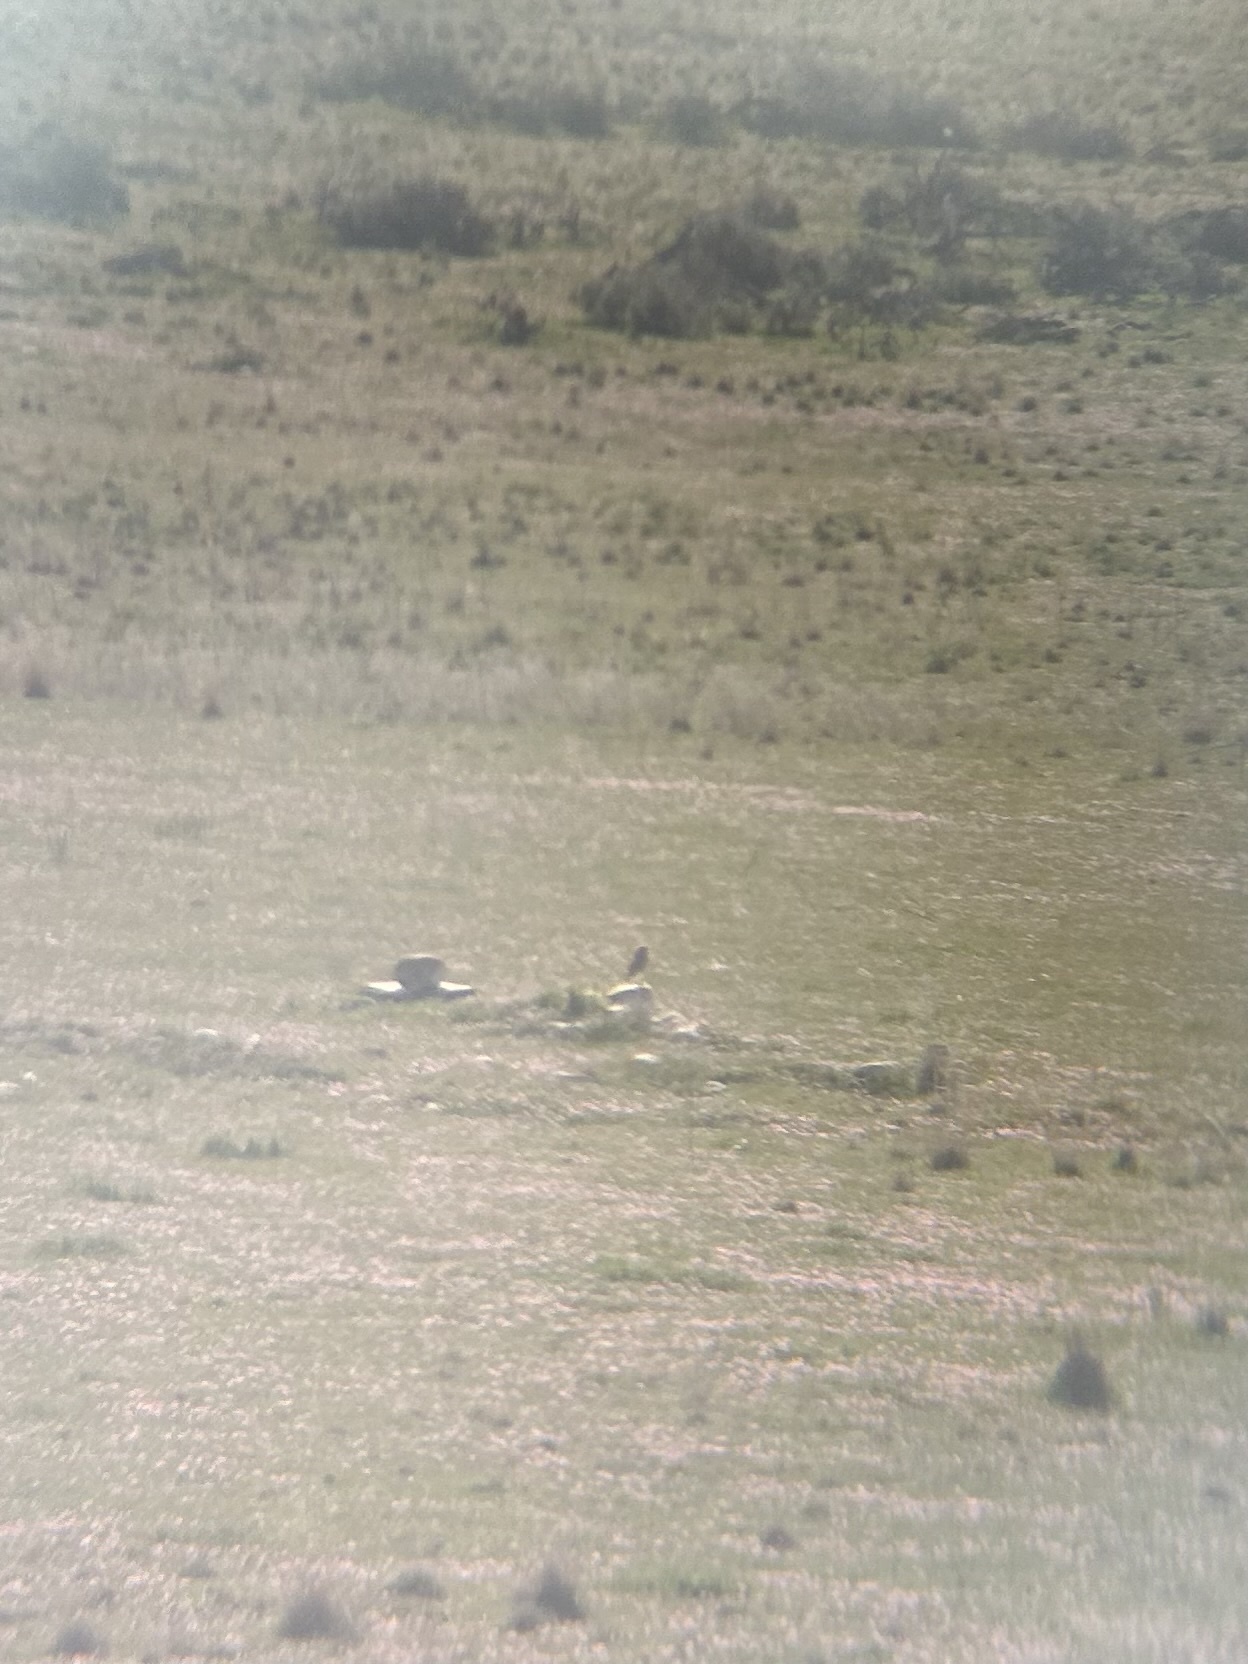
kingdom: Animalia
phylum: Chordata
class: Aves
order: Strigiformes
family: Strigidae
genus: Athene
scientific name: Athene cunicularia
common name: Burrowing owl
